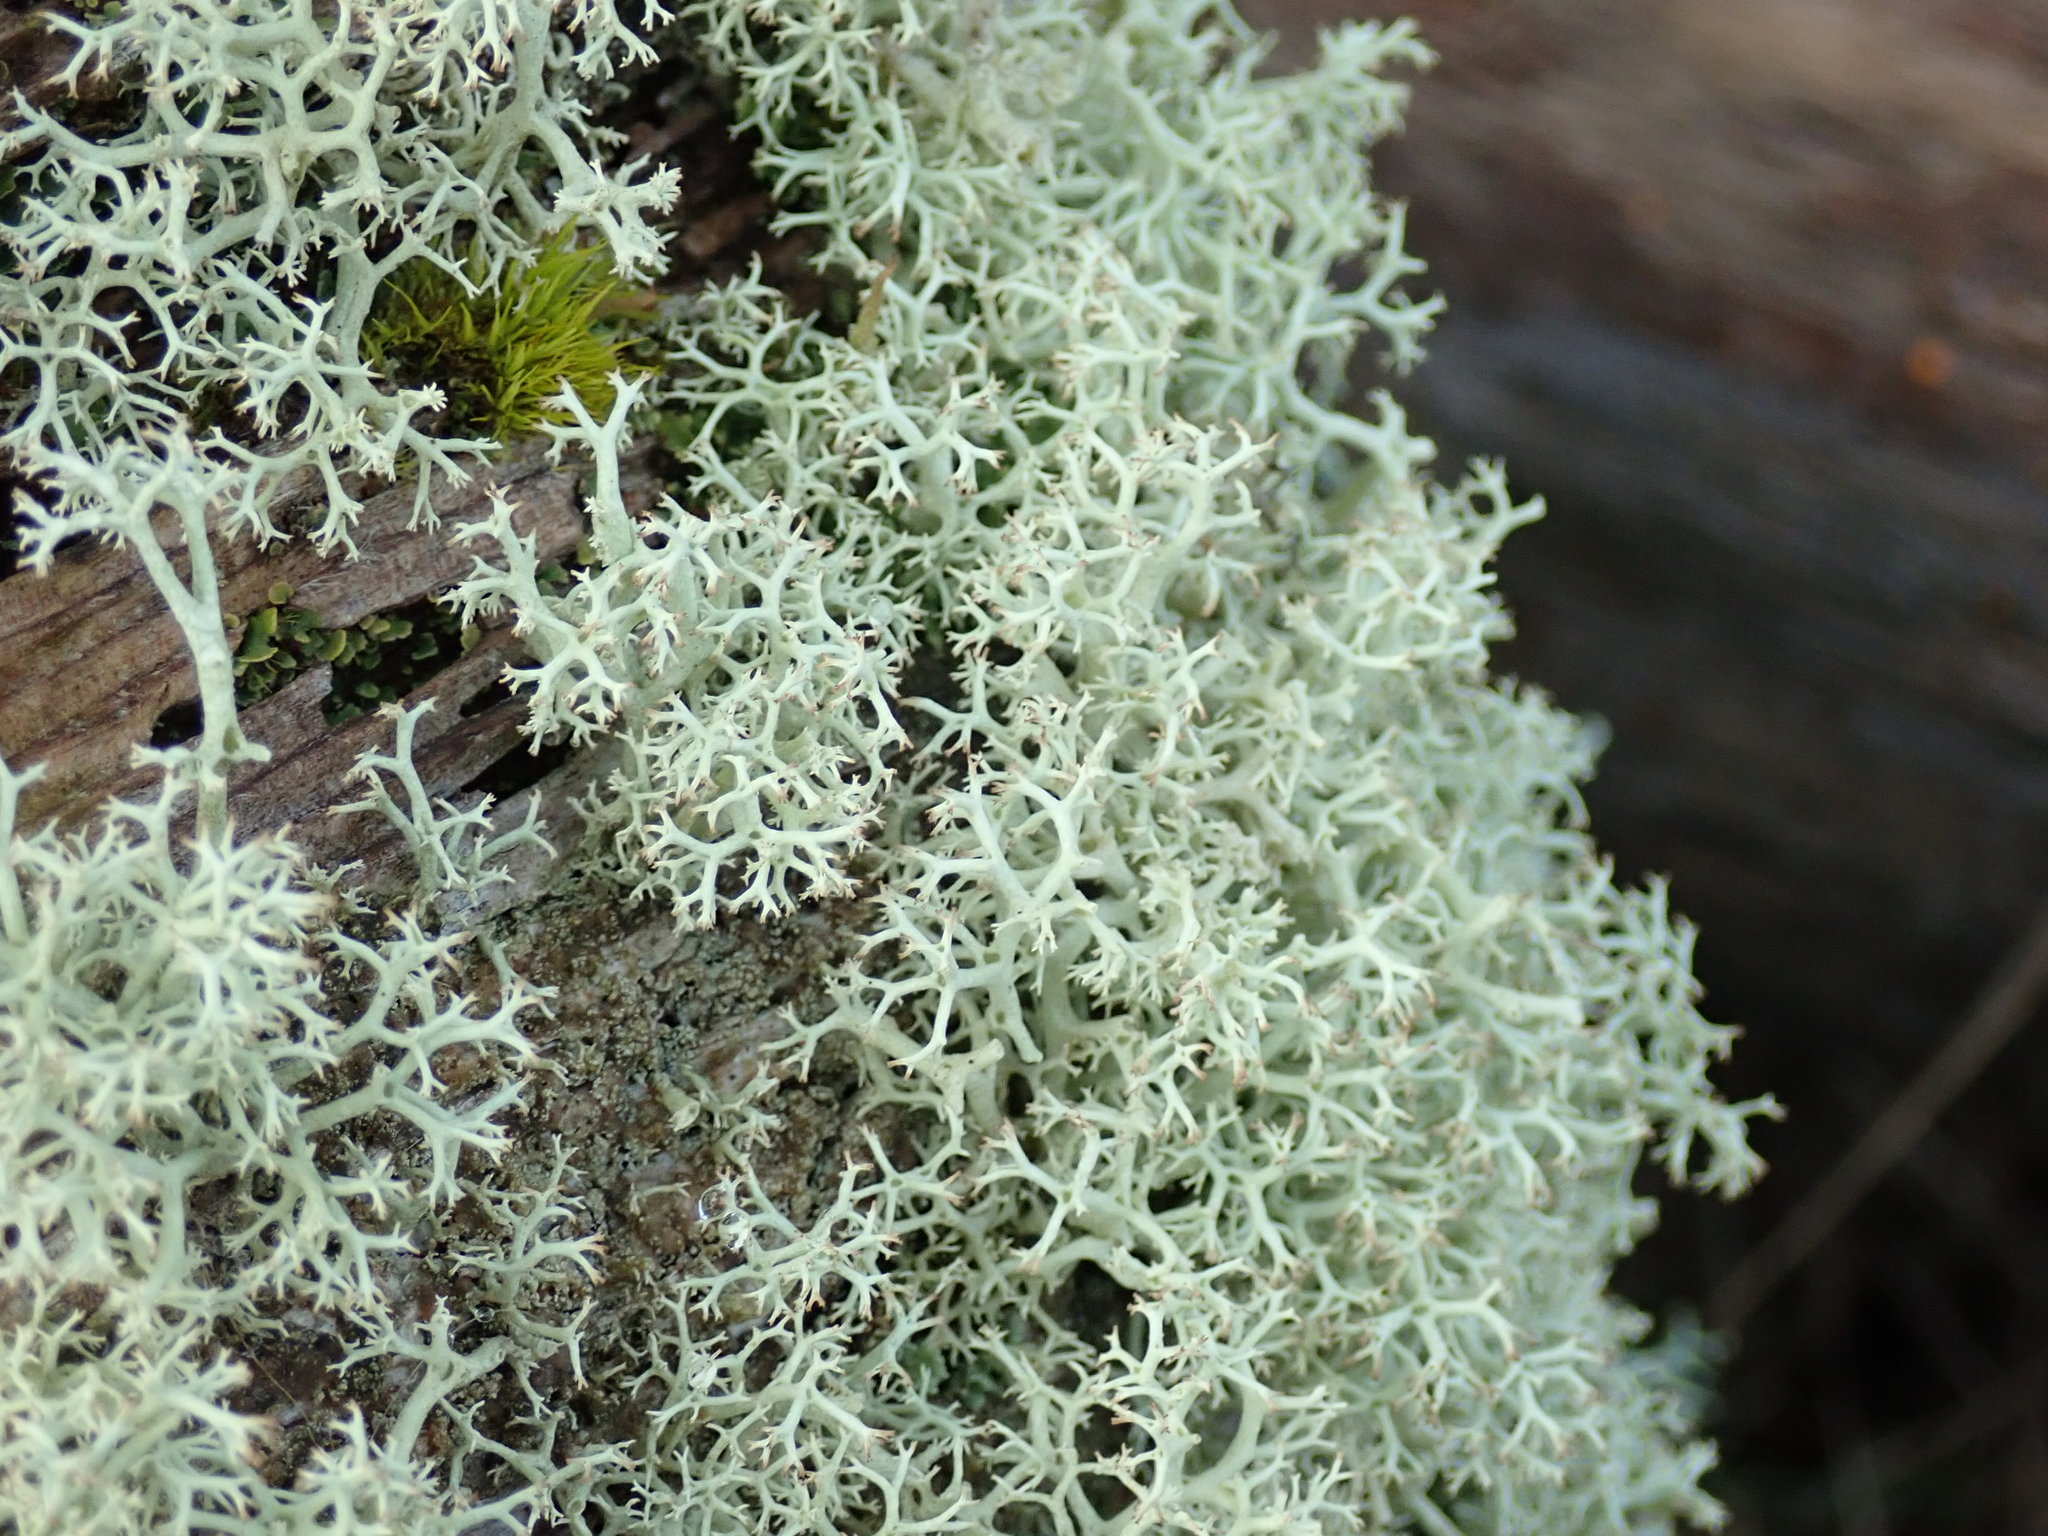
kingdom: Fungi
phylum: Ascomycota
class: Lecanoromycetes
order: Lecanorales
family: Cladoniaceae
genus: Cladonia
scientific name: Cladonia portentosa
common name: Reindeer lichen
